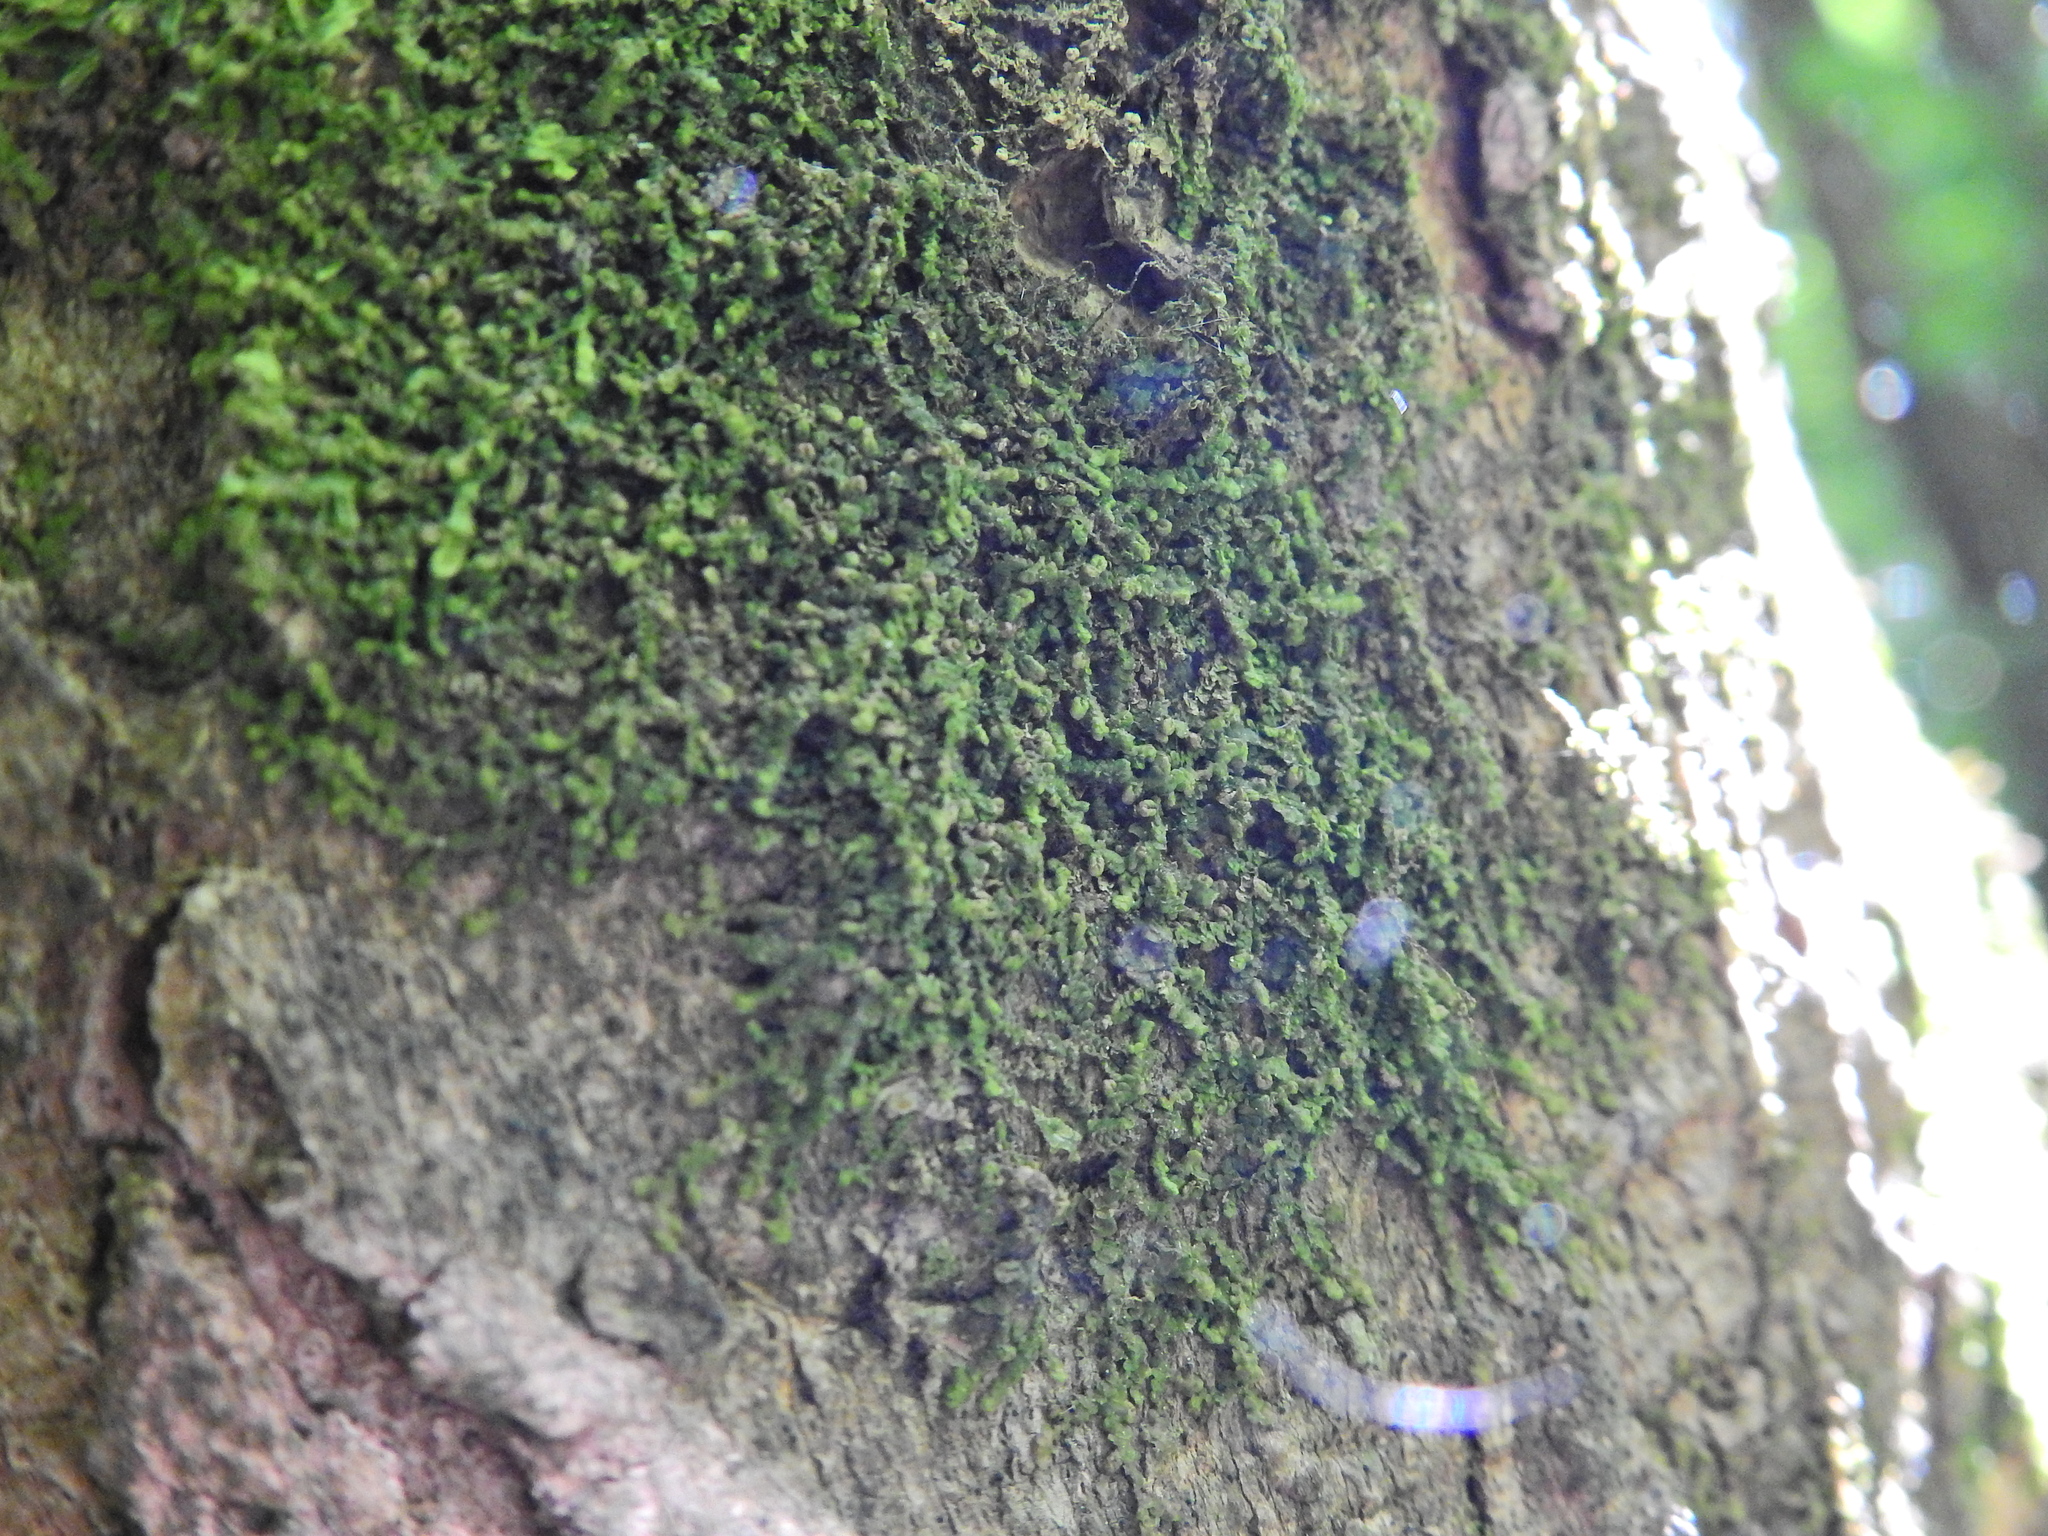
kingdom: Plantae
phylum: Marchantiophyta
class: Jungermanniopsida
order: Porellales
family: Frullaniaceae
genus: Frullania
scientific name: Frullania dilatata
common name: Dilated scalewort
